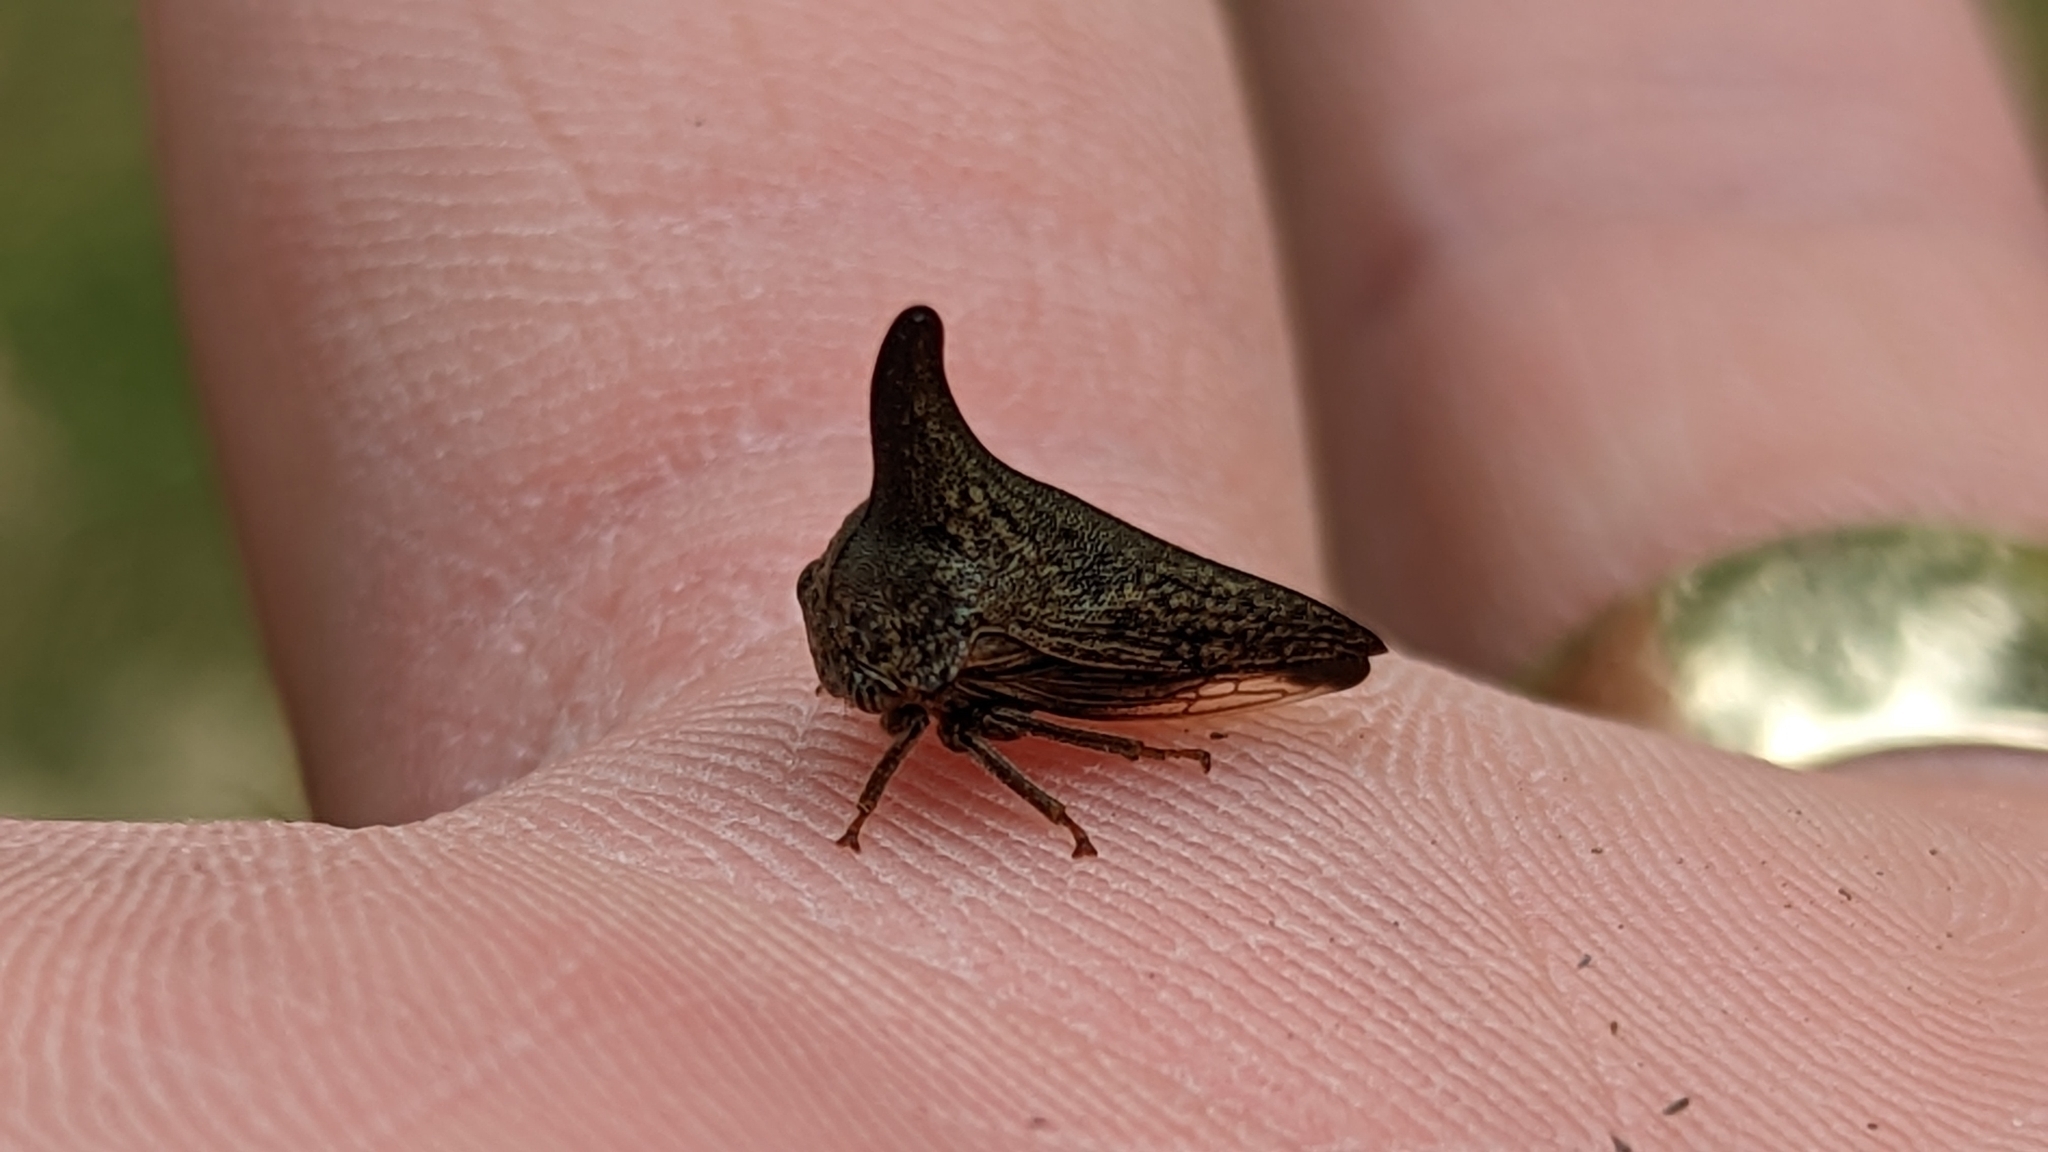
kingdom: Animalia
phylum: Arthropoda
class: Insecta
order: Hemiptera
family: Membracidae
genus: Thelia
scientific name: Thelia bimaculata
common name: Locust treehopper
